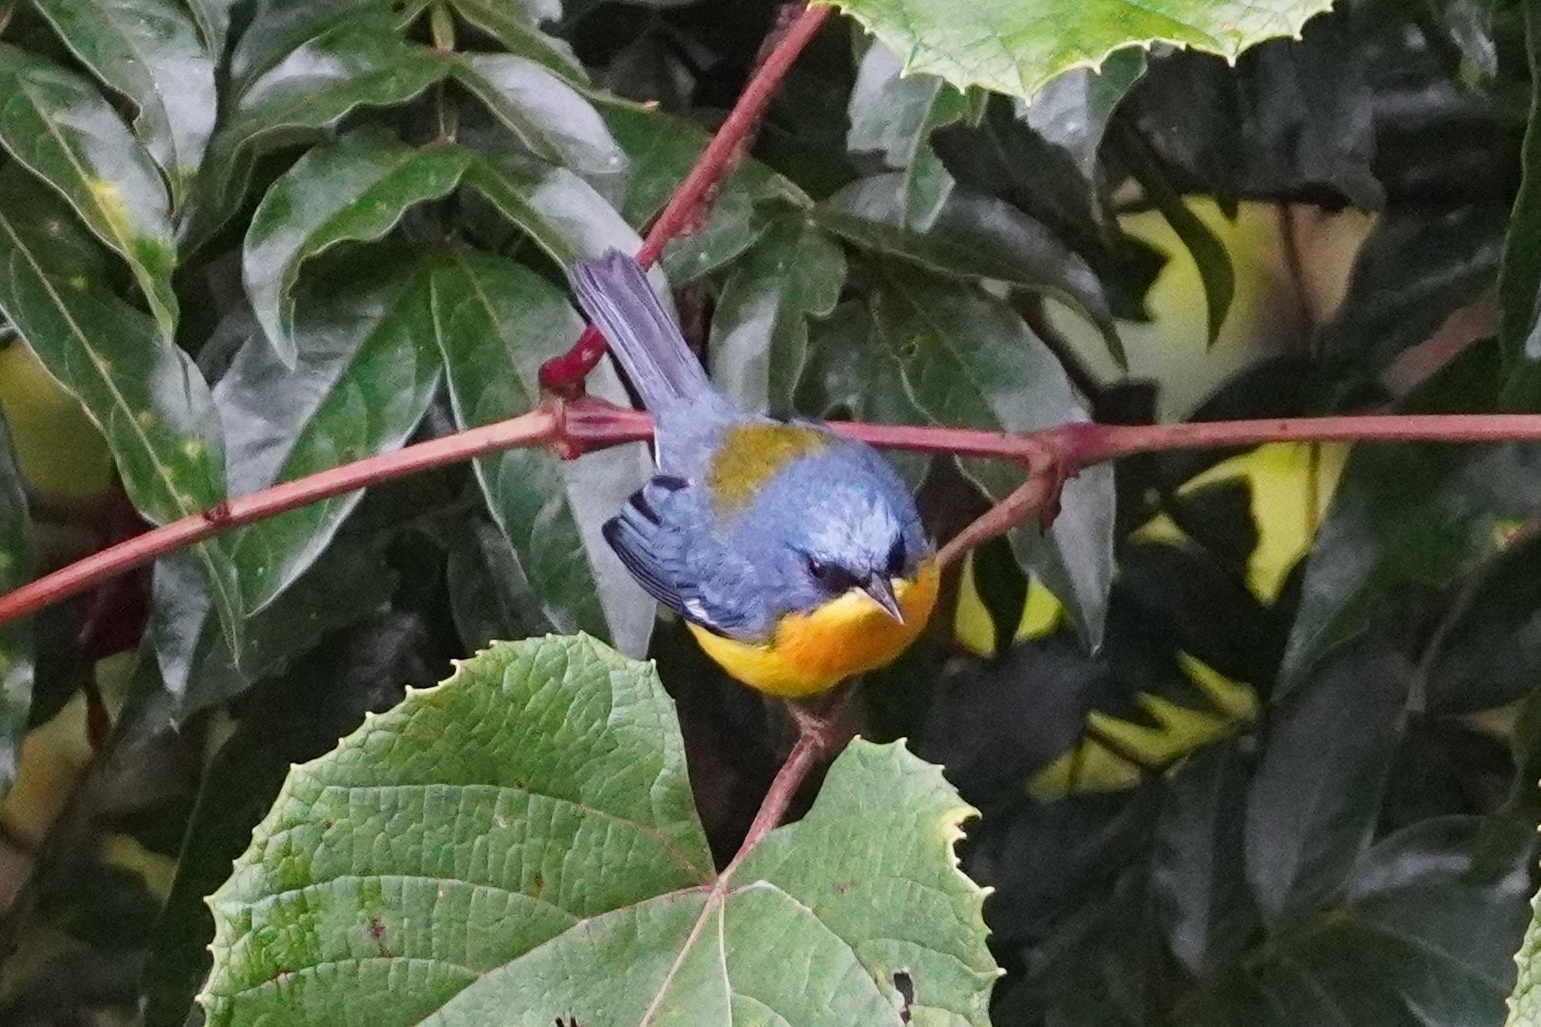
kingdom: Animalia
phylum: Chordata
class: Aves
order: Passeriformes
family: Parulidae
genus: Setophaga
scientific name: Setophaga pitiayumi
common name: Tropical parula
